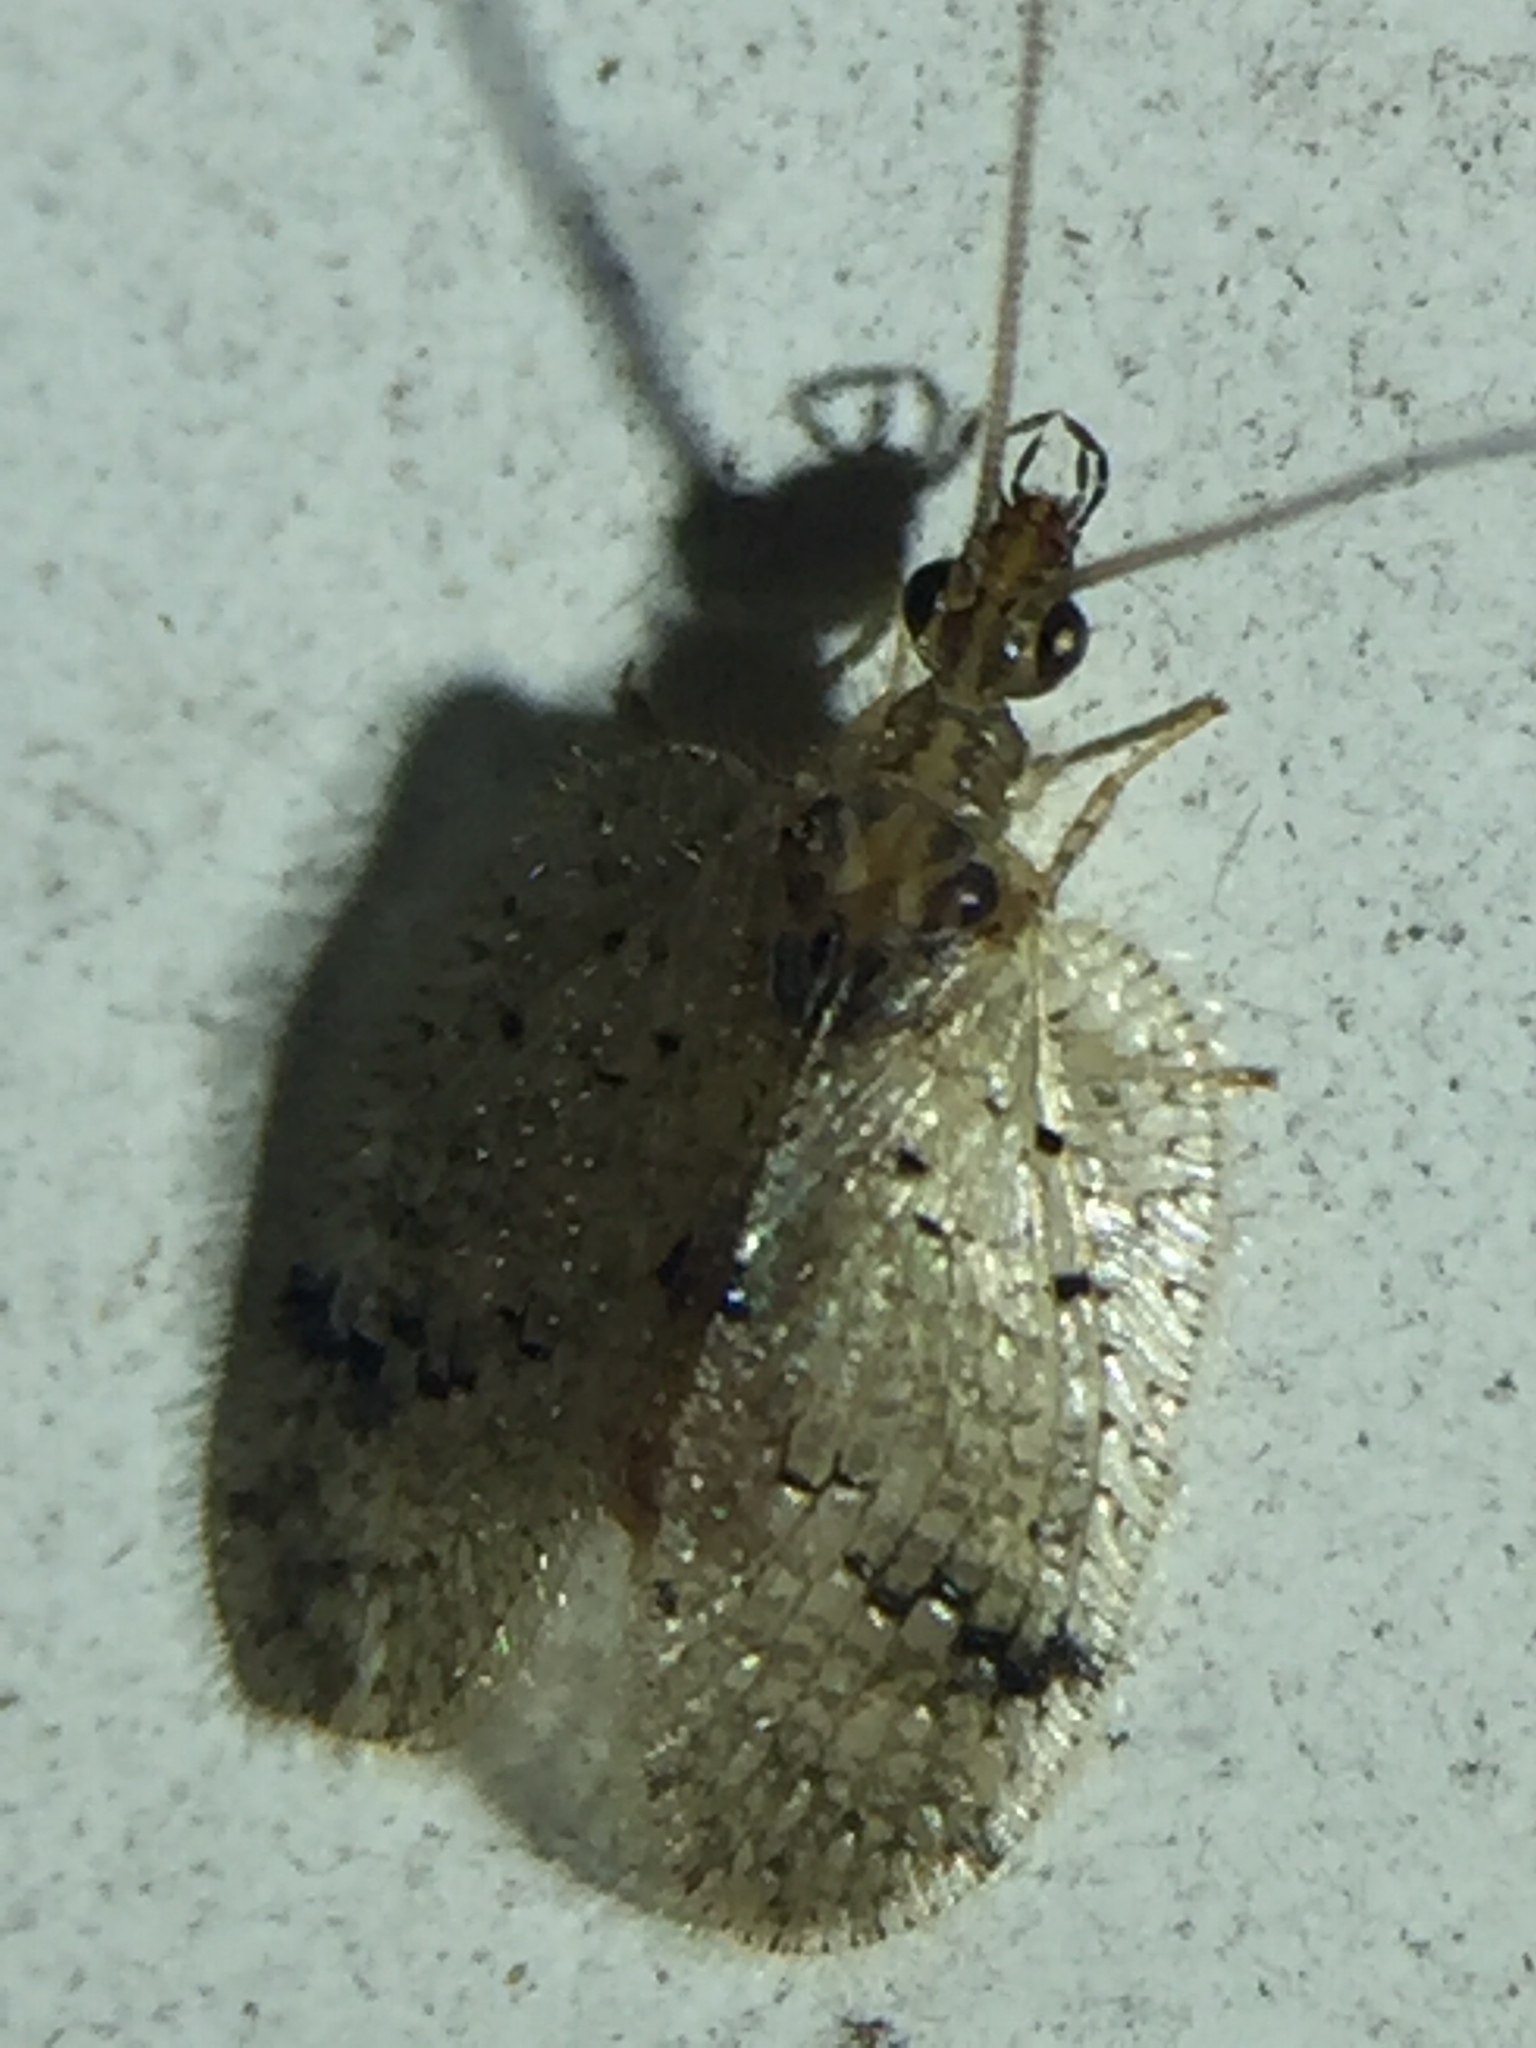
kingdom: Animalia
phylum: Arthropoda
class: Insecta
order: Neuroptera
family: Hemerobiidae
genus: Psectra
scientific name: Psectra nakaharai
